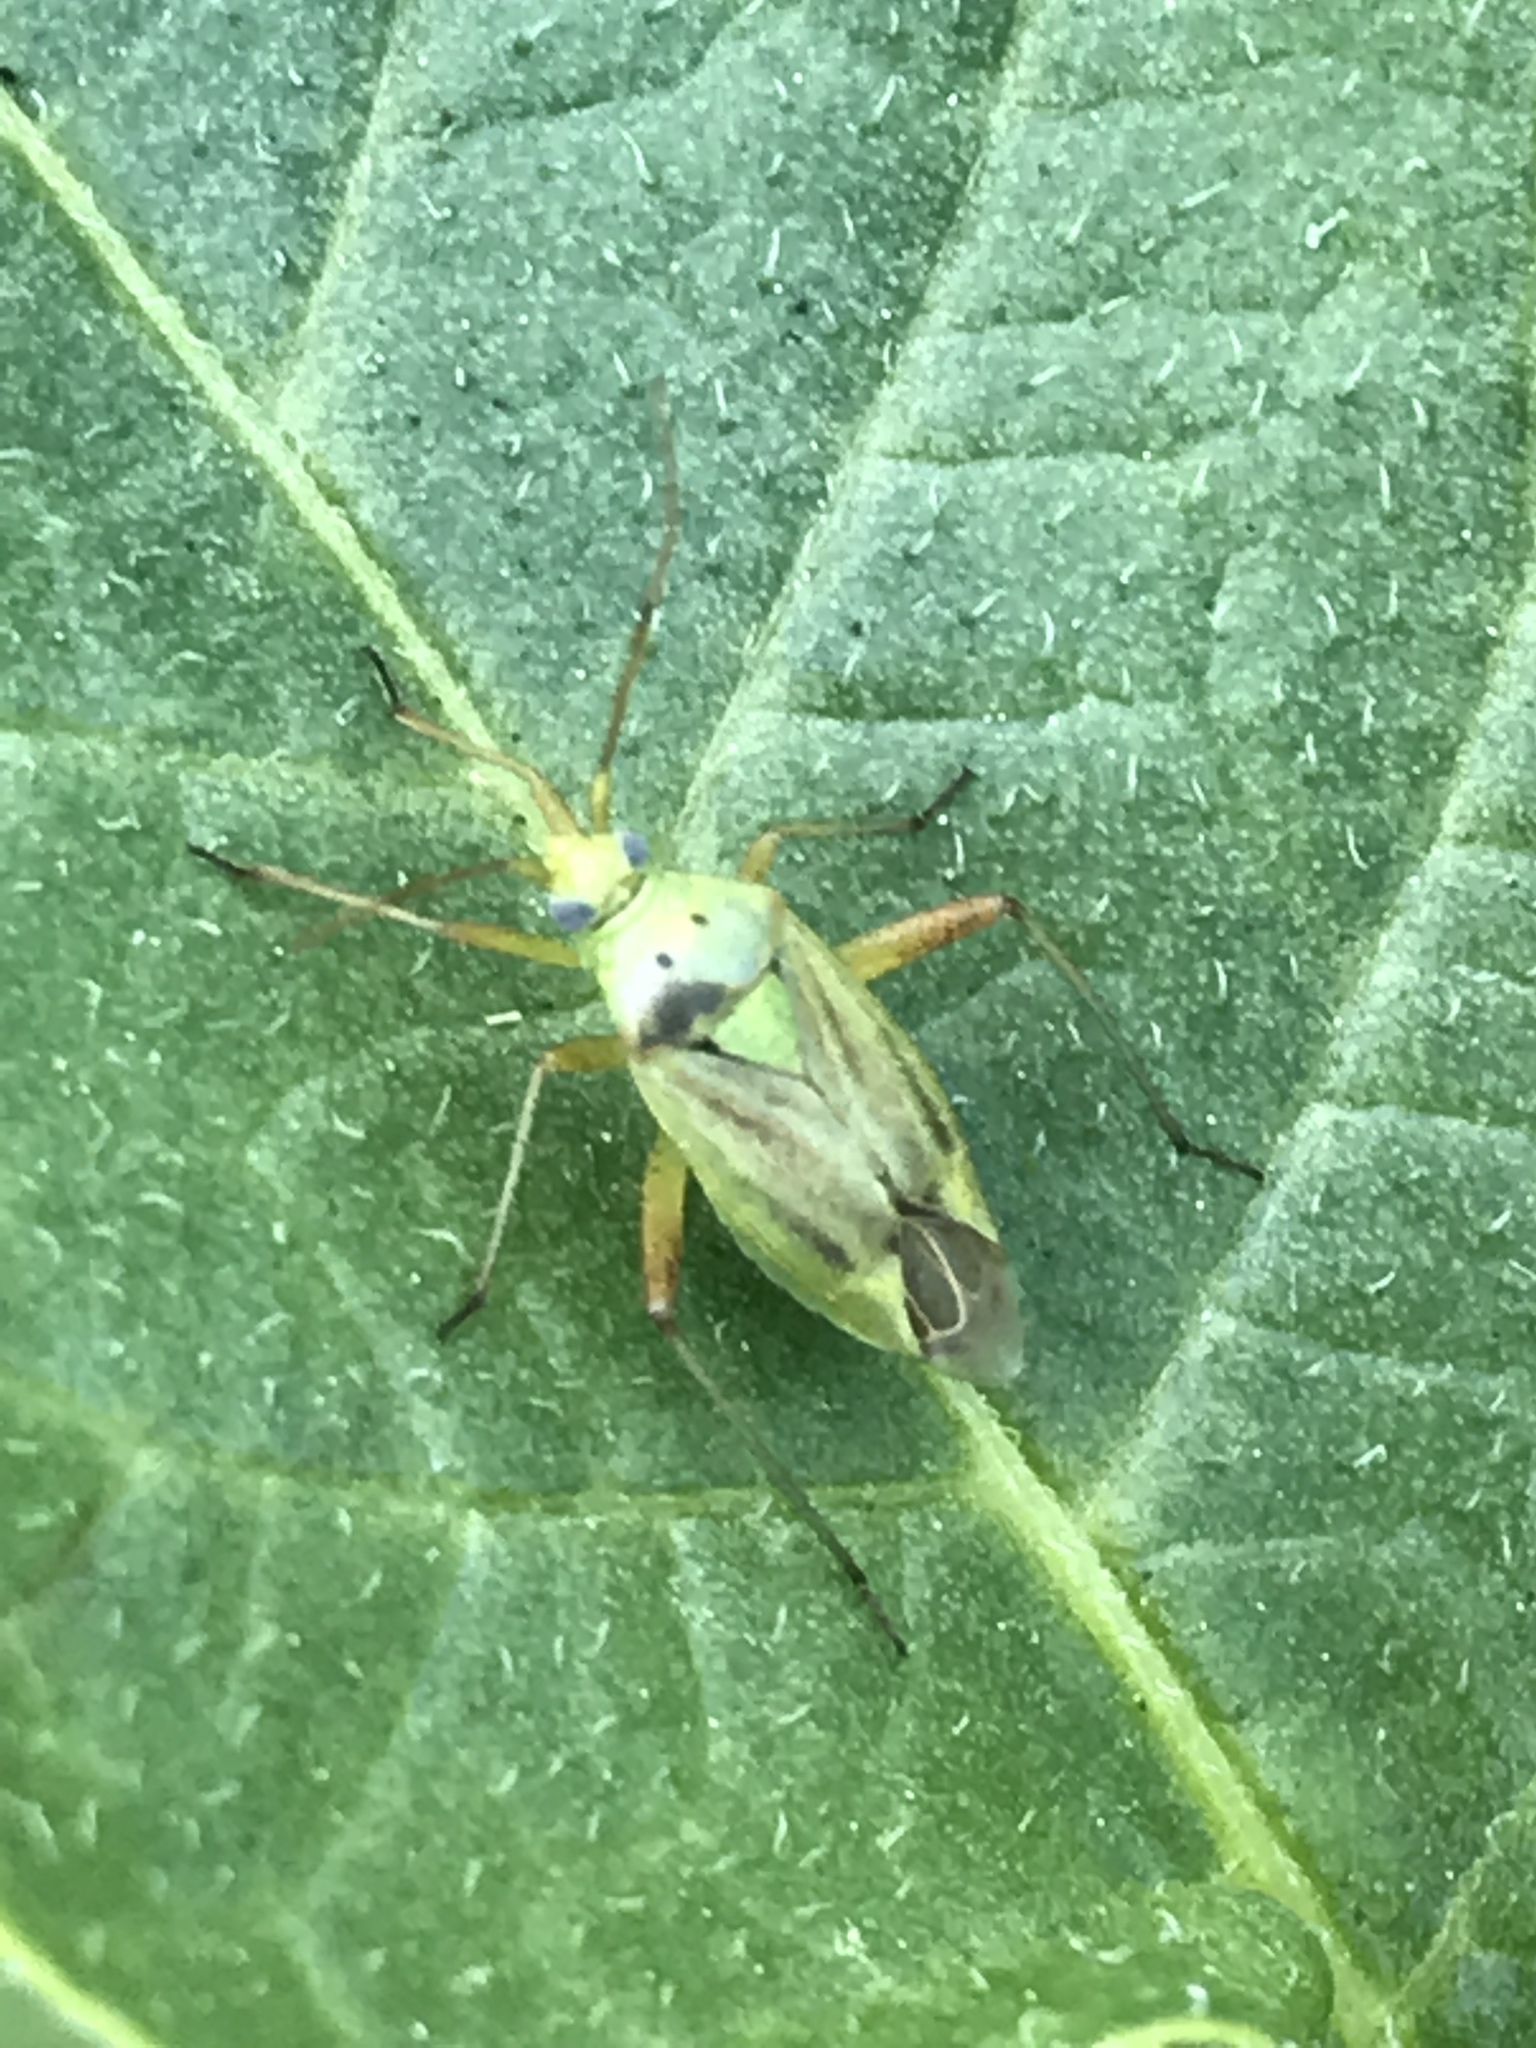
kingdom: Animalia
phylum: Arthropoda
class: Insecta
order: Hemiptera
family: Miridae
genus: Closterotomus
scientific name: Closterotomus norvegicus
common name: Plant bug
